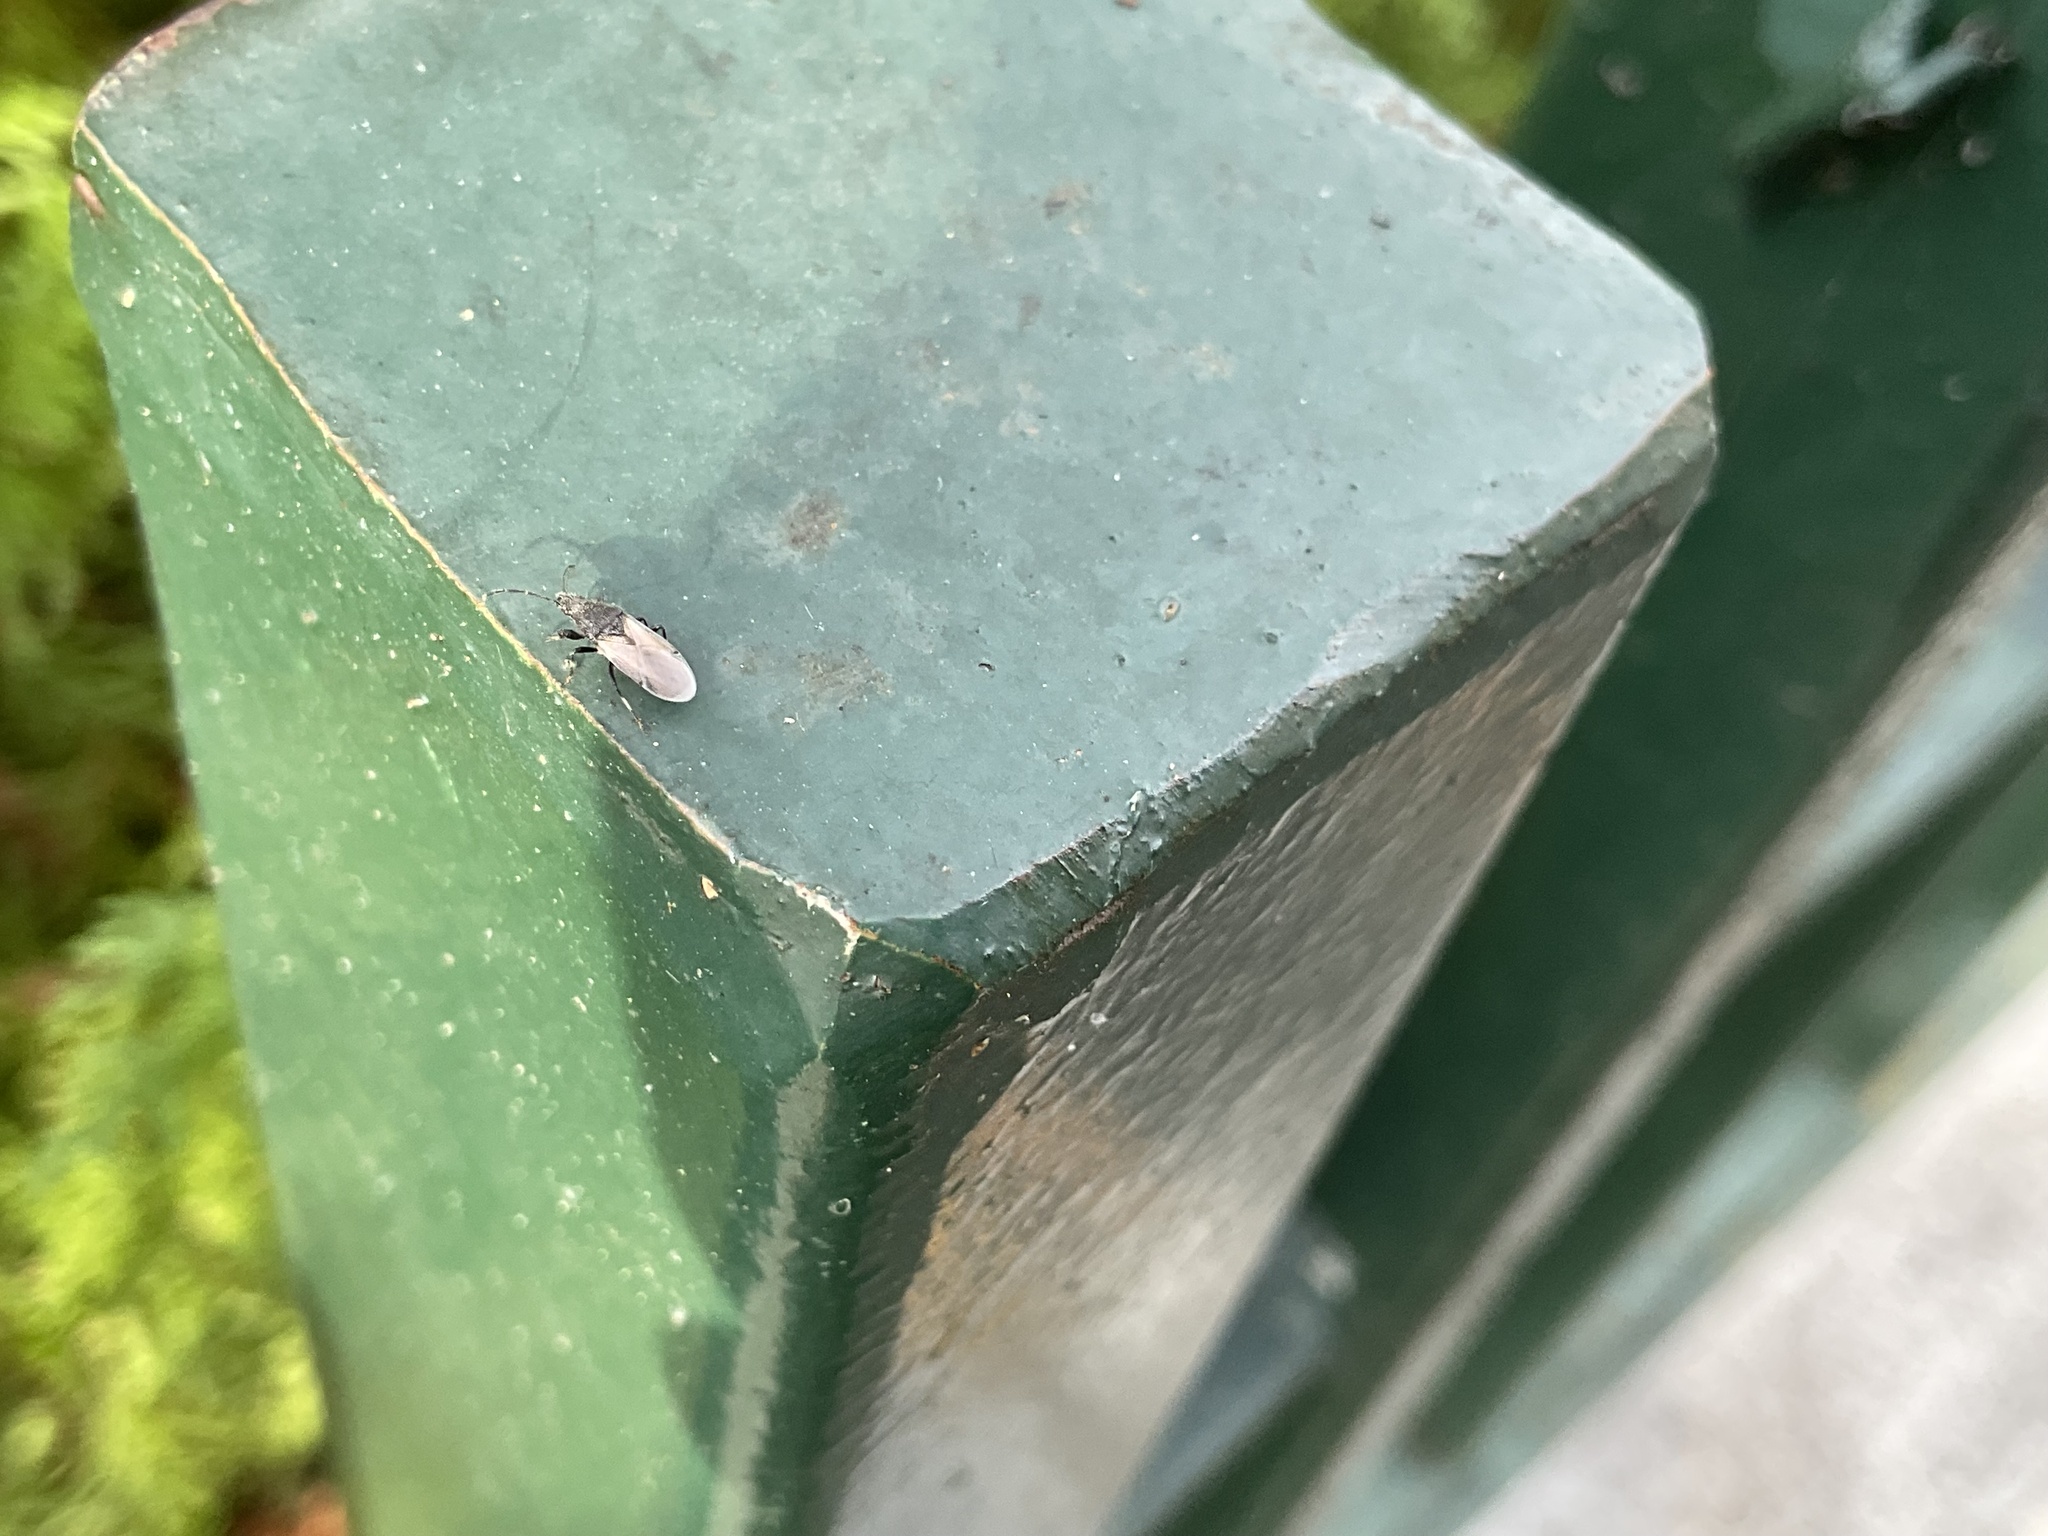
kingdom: Animalia
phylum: Arthropoda
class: Insecta
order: Hemiptera
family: Oxycarenidae
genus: Oxycarenus
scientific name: Oxycarenus hyalinipennis
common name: Cotton seed bug
